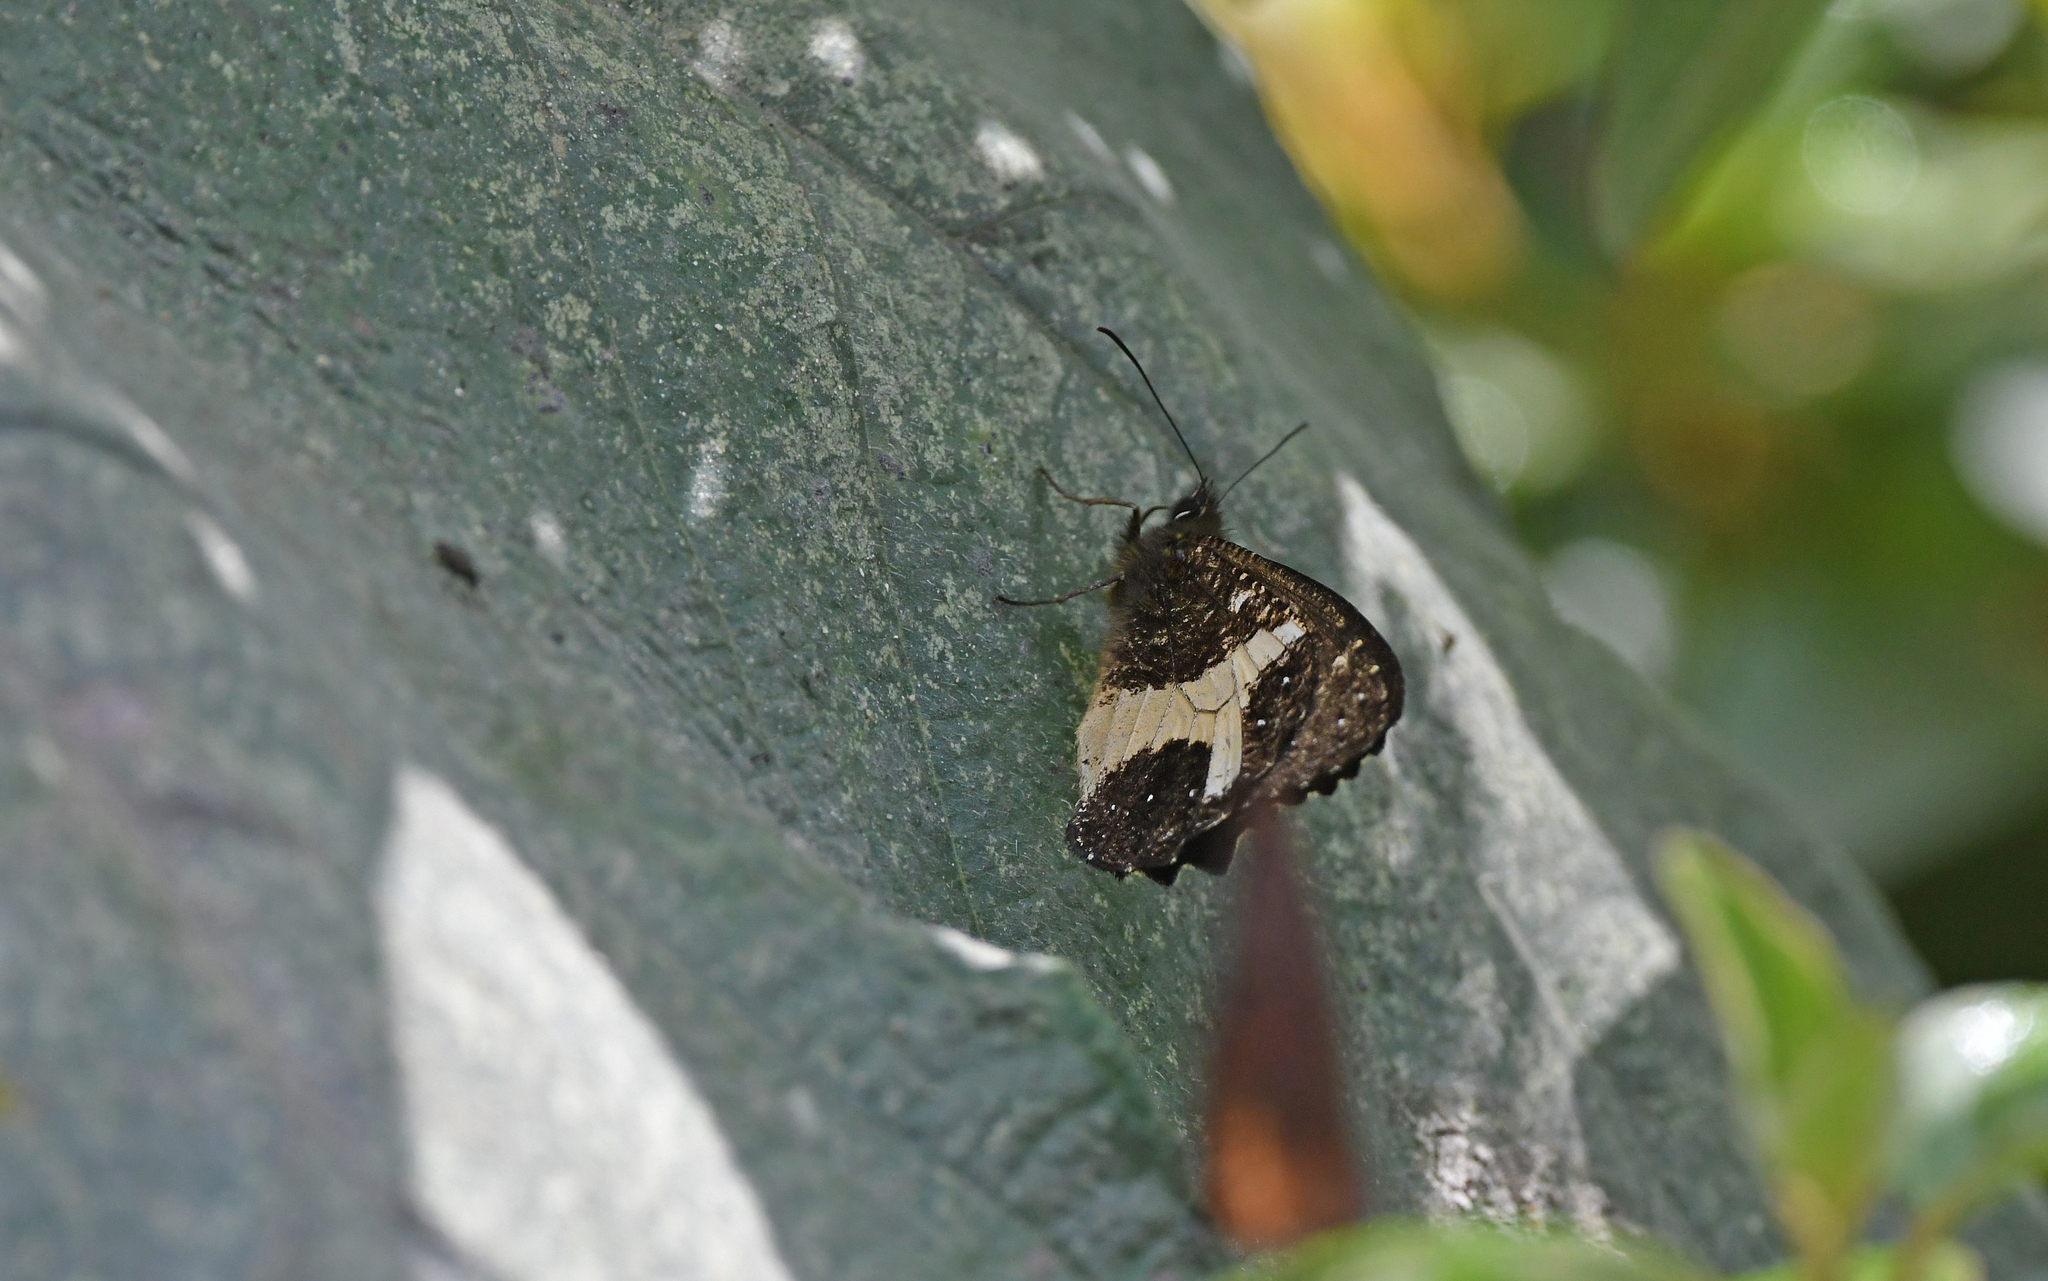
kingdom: Animalia
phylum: Arthropoda
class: Insecta
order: Lepidoptera
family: Nymphalidae
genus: Antopedaliodes
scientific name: Antopedaliodes antonia
